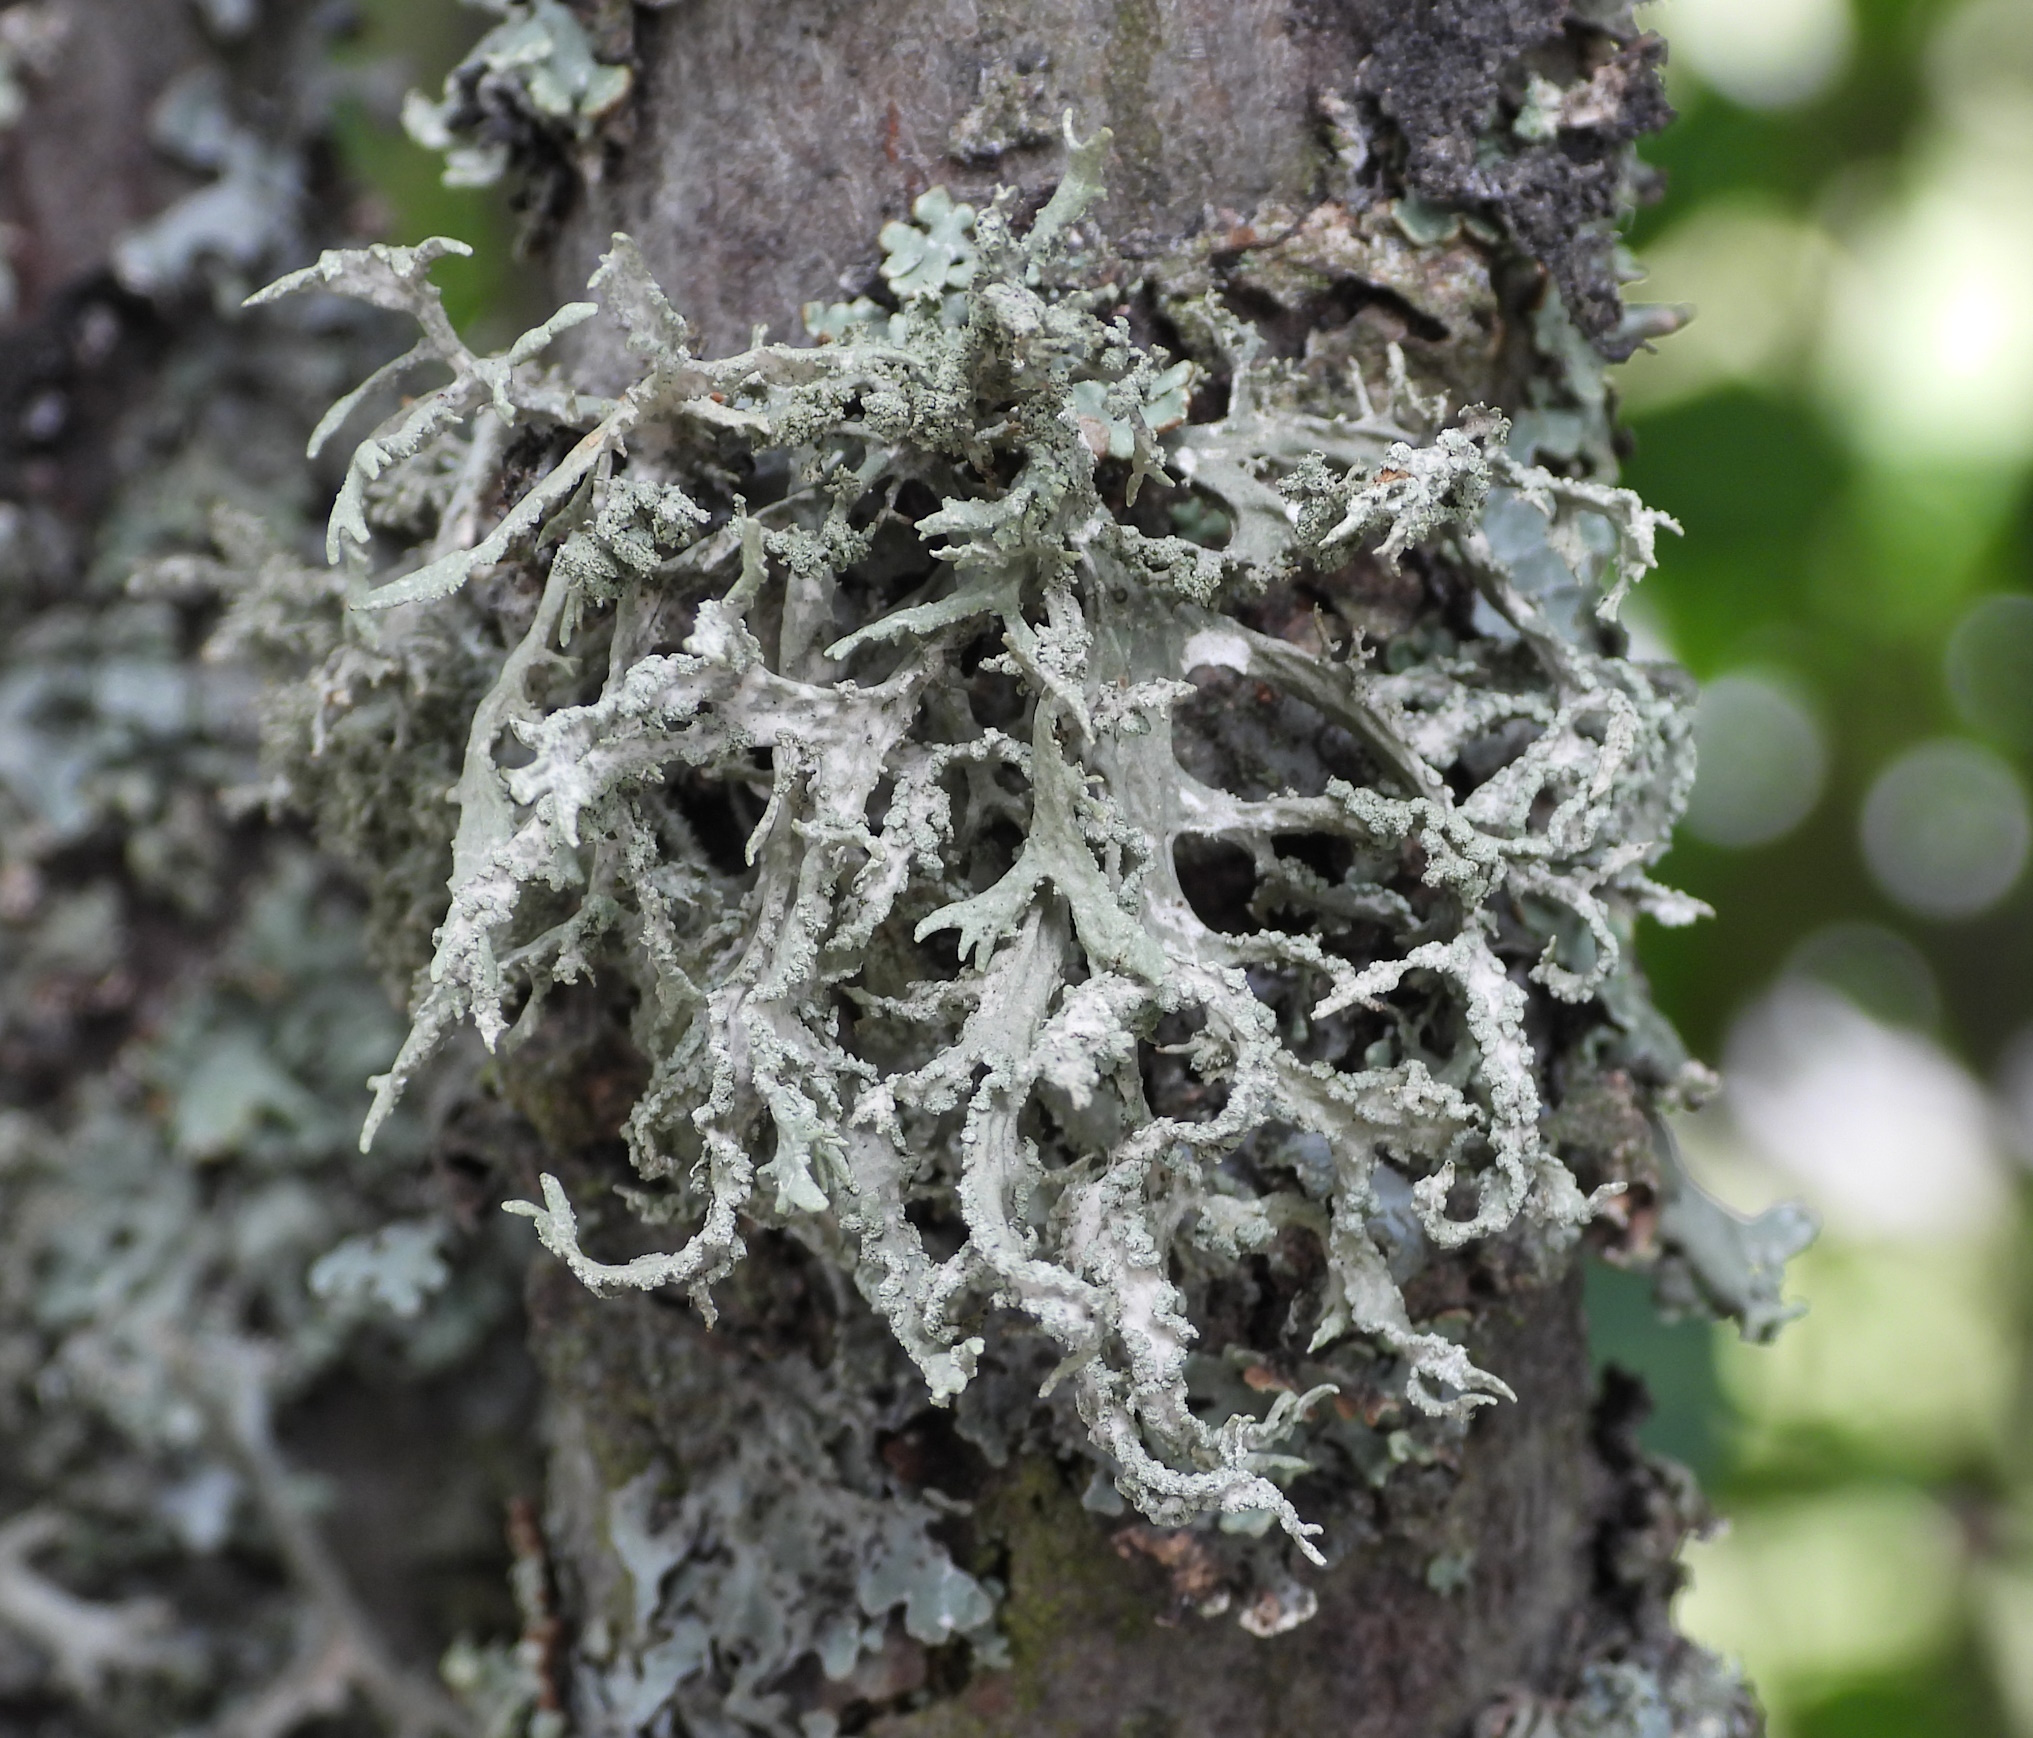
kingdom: Fungi
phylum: Ascomycota
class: Lecanoromycetes
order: Lecanorales
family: Parmeliaceae
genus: Evernia
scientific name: Evernia prunastri
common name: Oak moss
